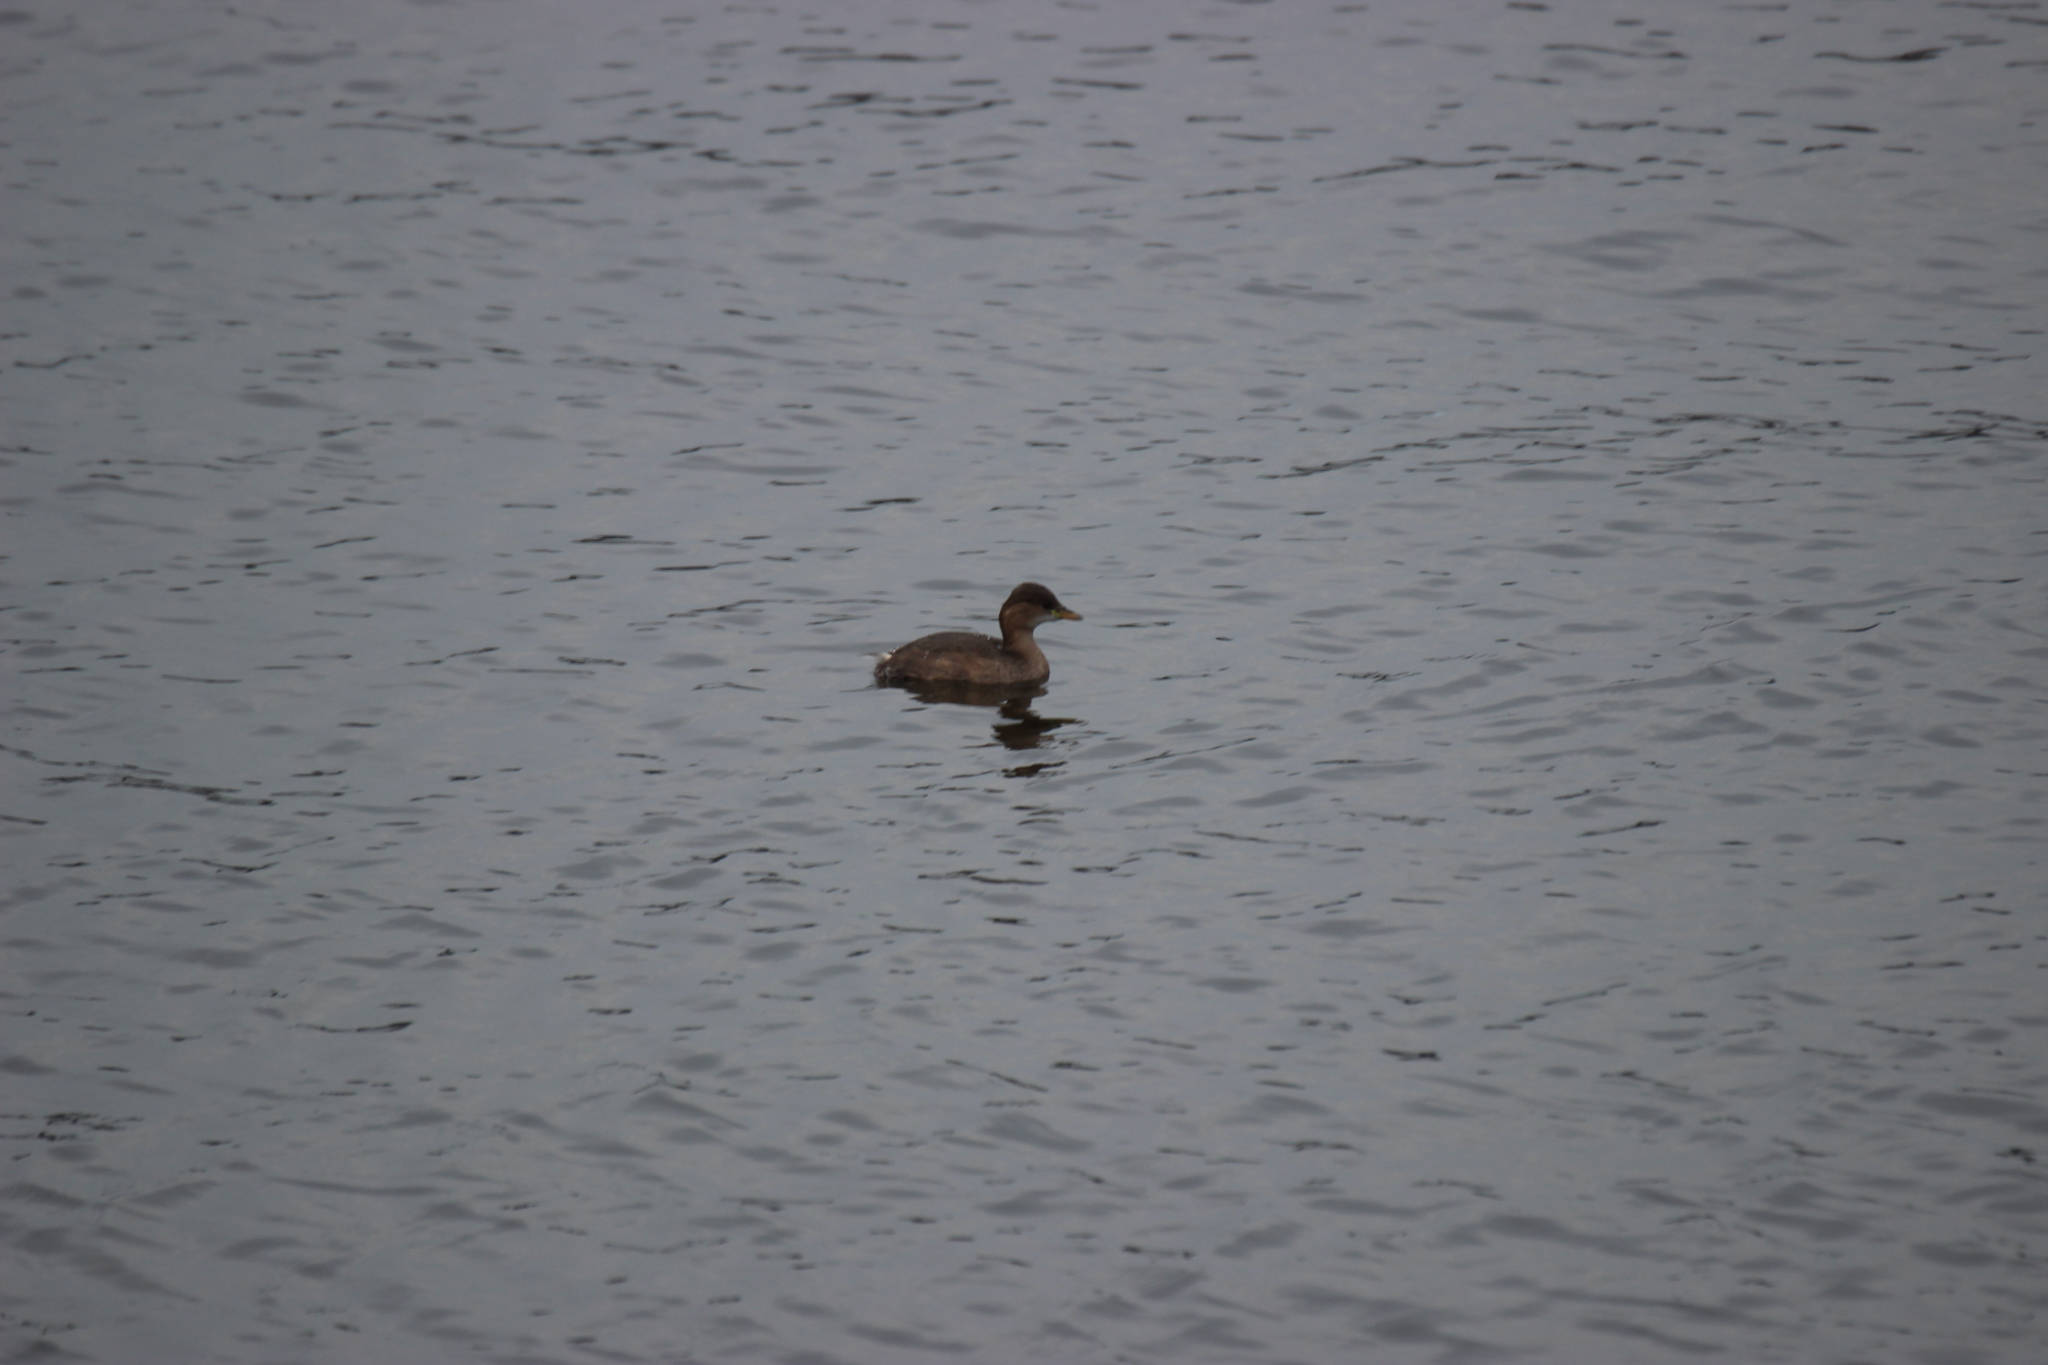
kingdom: Animalia
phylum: Chordata
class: Aves
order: Podicipediformes
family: Podicipedidae
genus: Tachybaptus
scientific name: Tachybaptus ruficollis
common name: Little grebe
